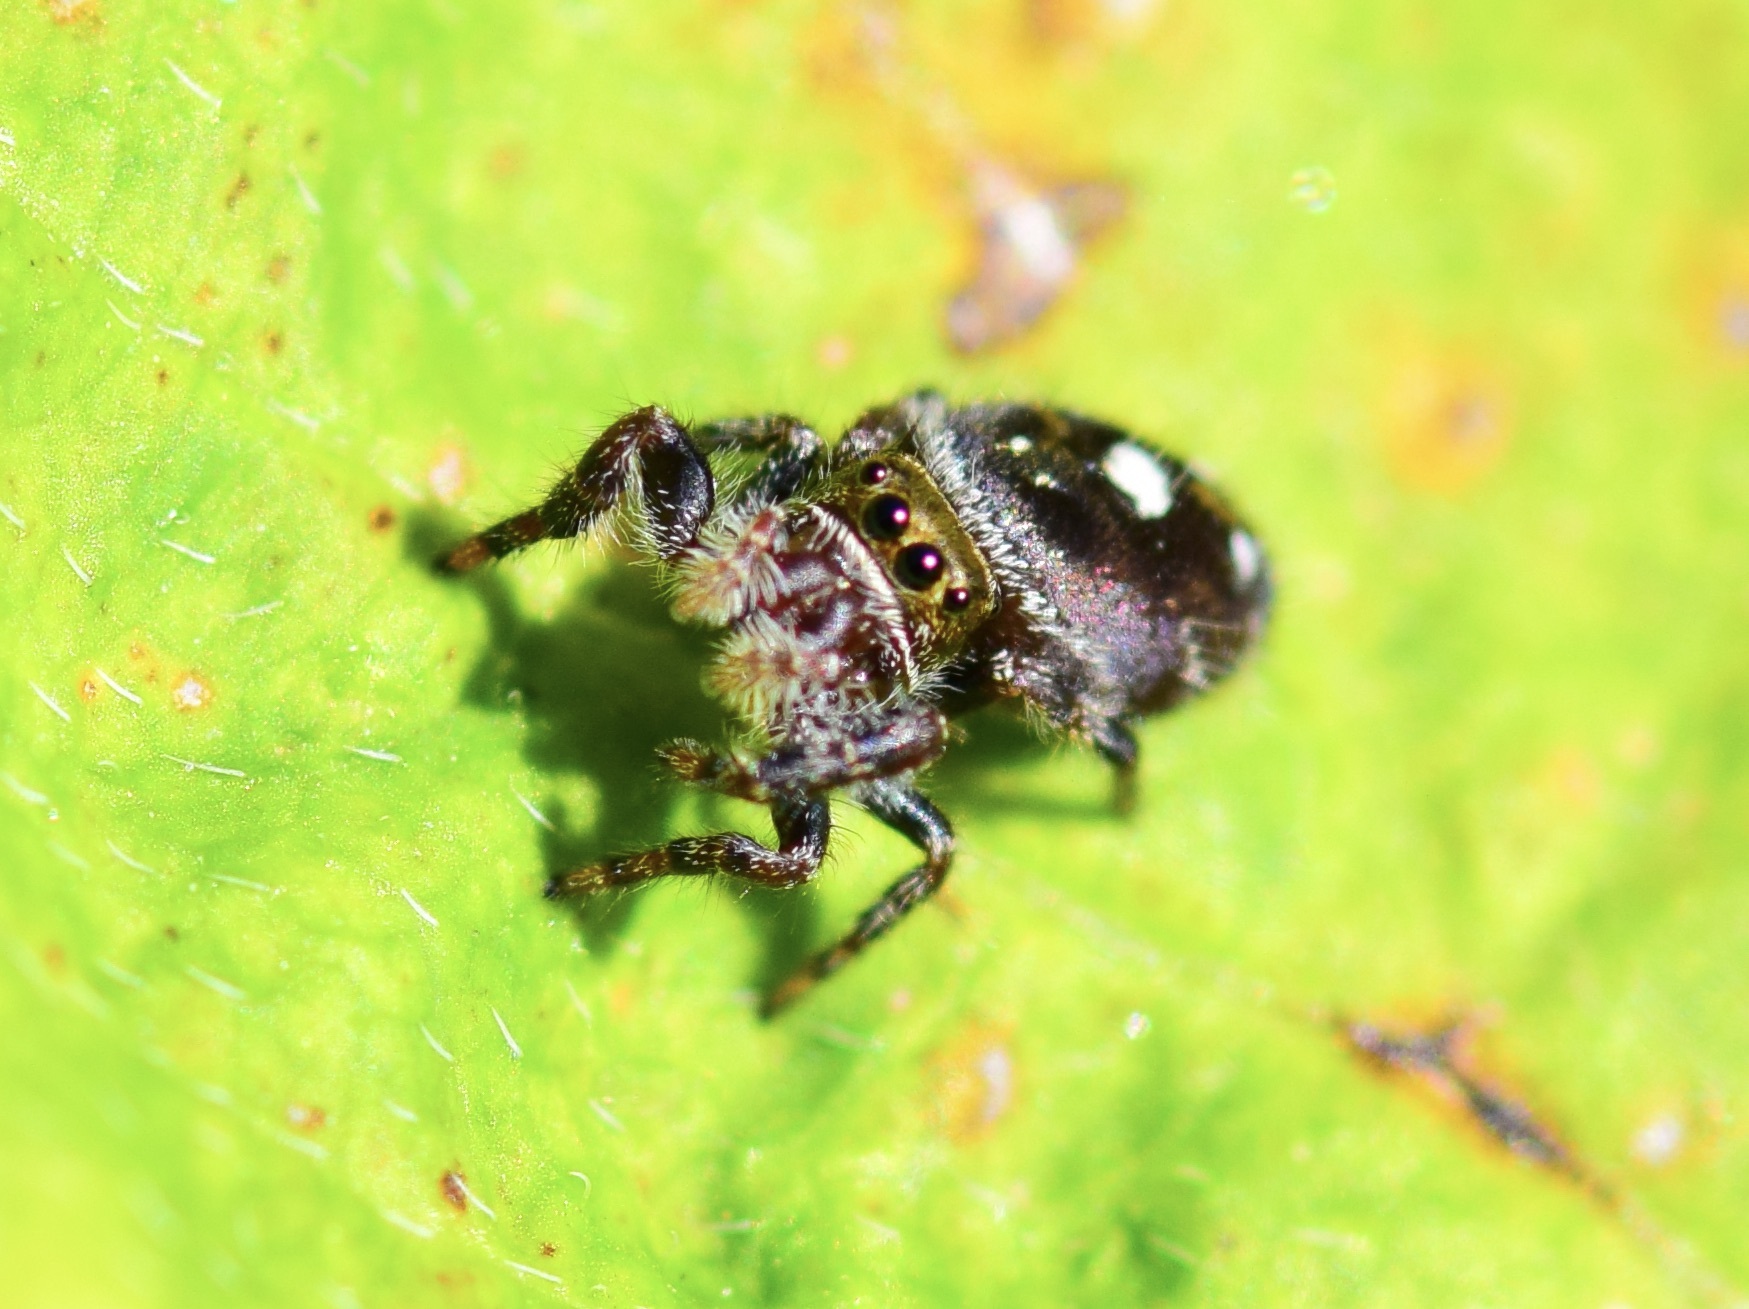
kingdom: Animalia
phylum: Arthropoda
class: Arachnida
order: Araneae
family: Salticidae
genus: Phidippus
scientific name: Phidippus audax
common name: Bold jumper
